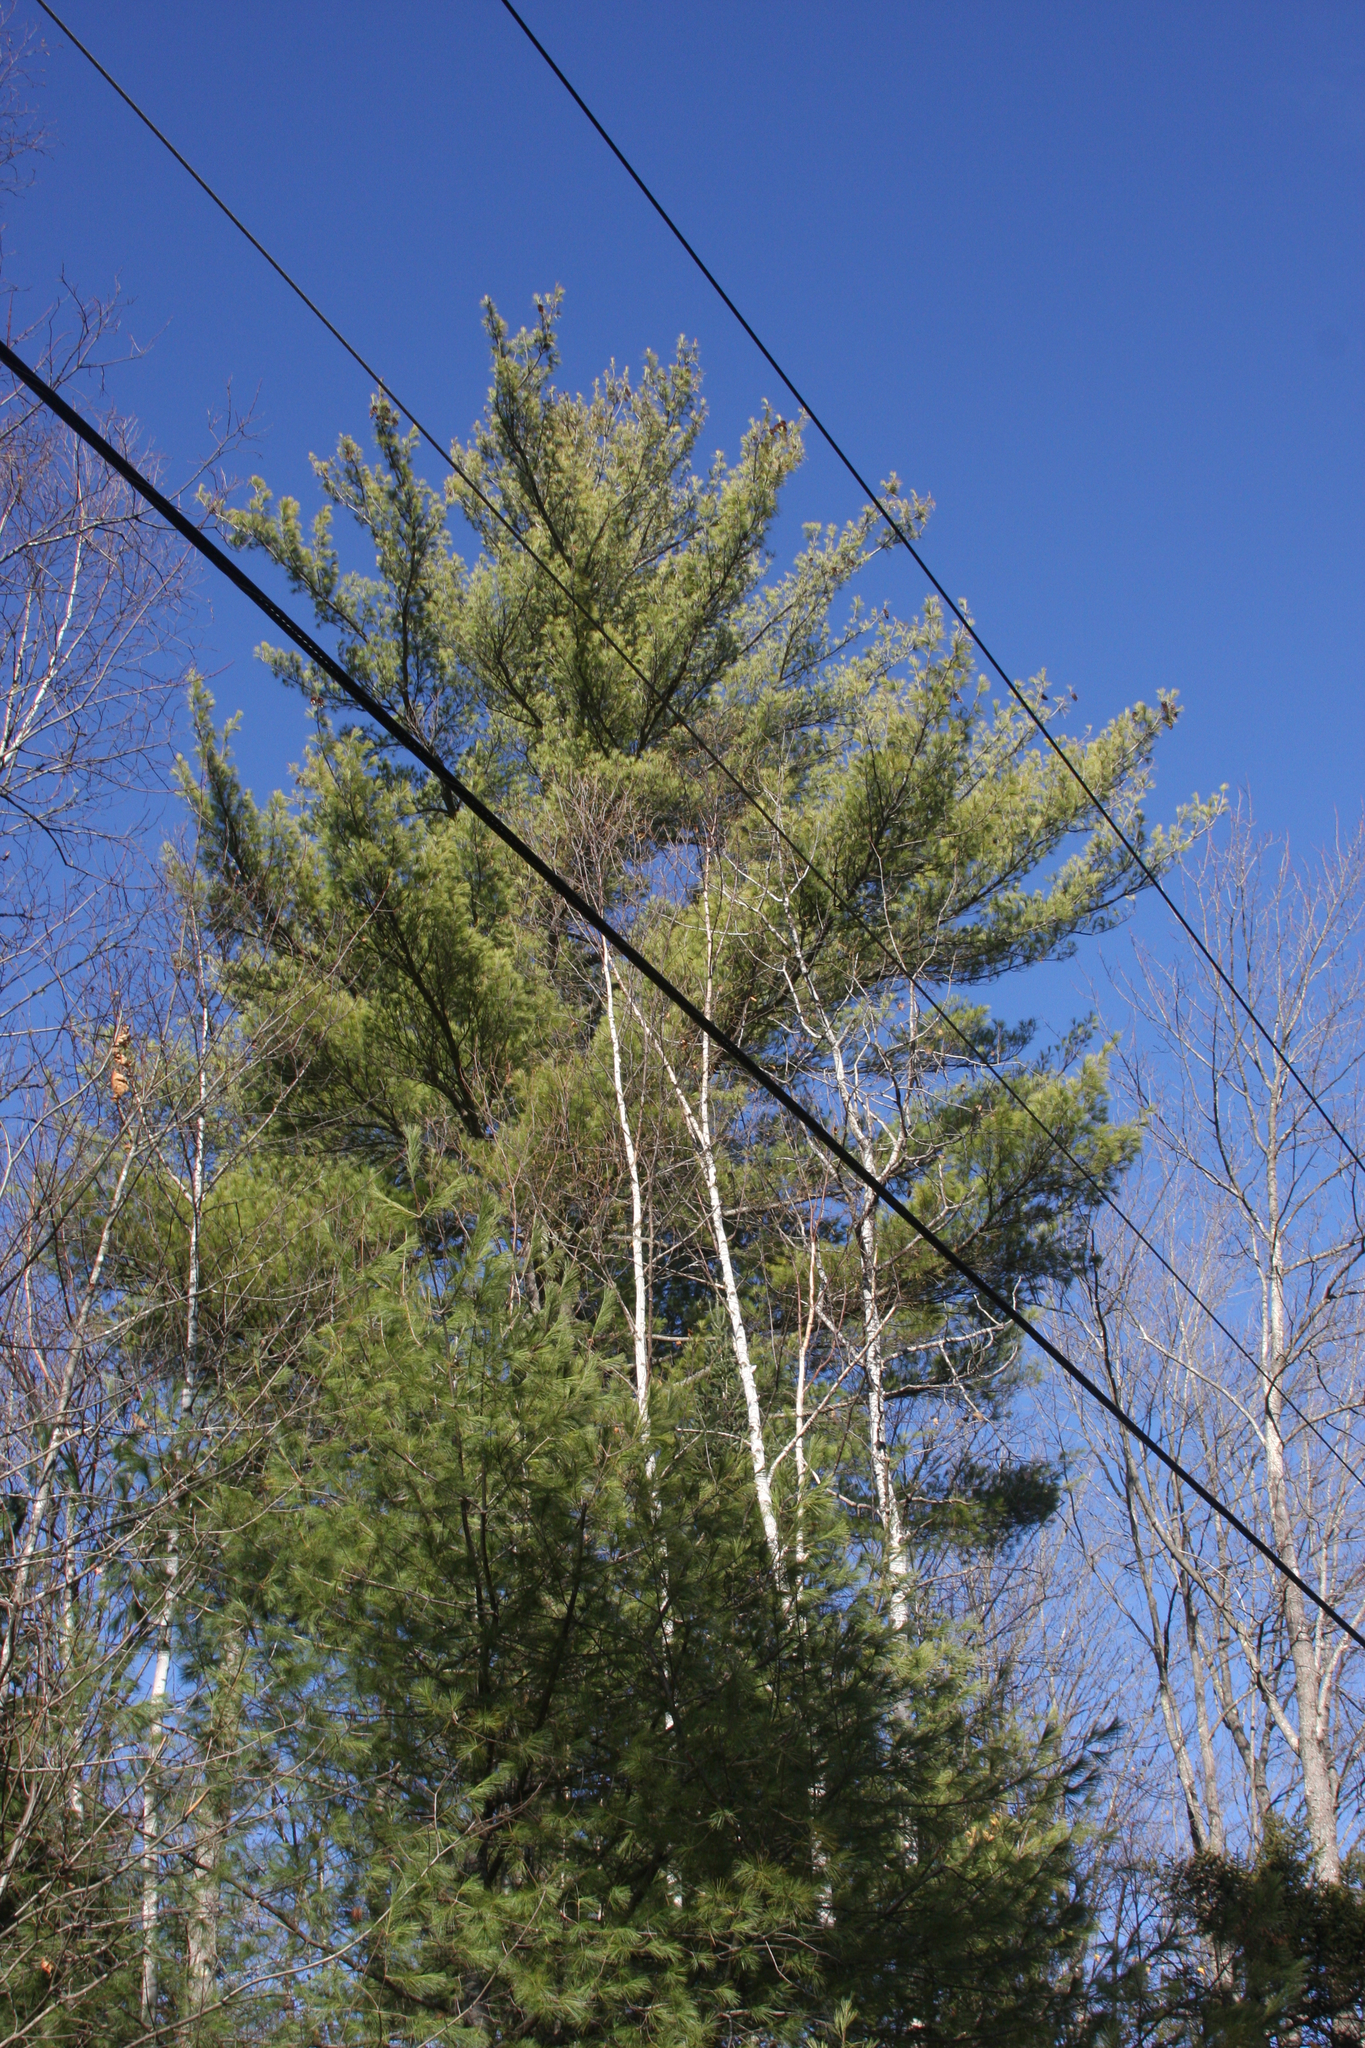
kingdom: Plantae
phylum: Tracheophyta
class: Pinopsida
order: Pinales
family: Pinaceae
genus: Pinus
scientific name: Pinus strobus
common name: Weymouth pine
